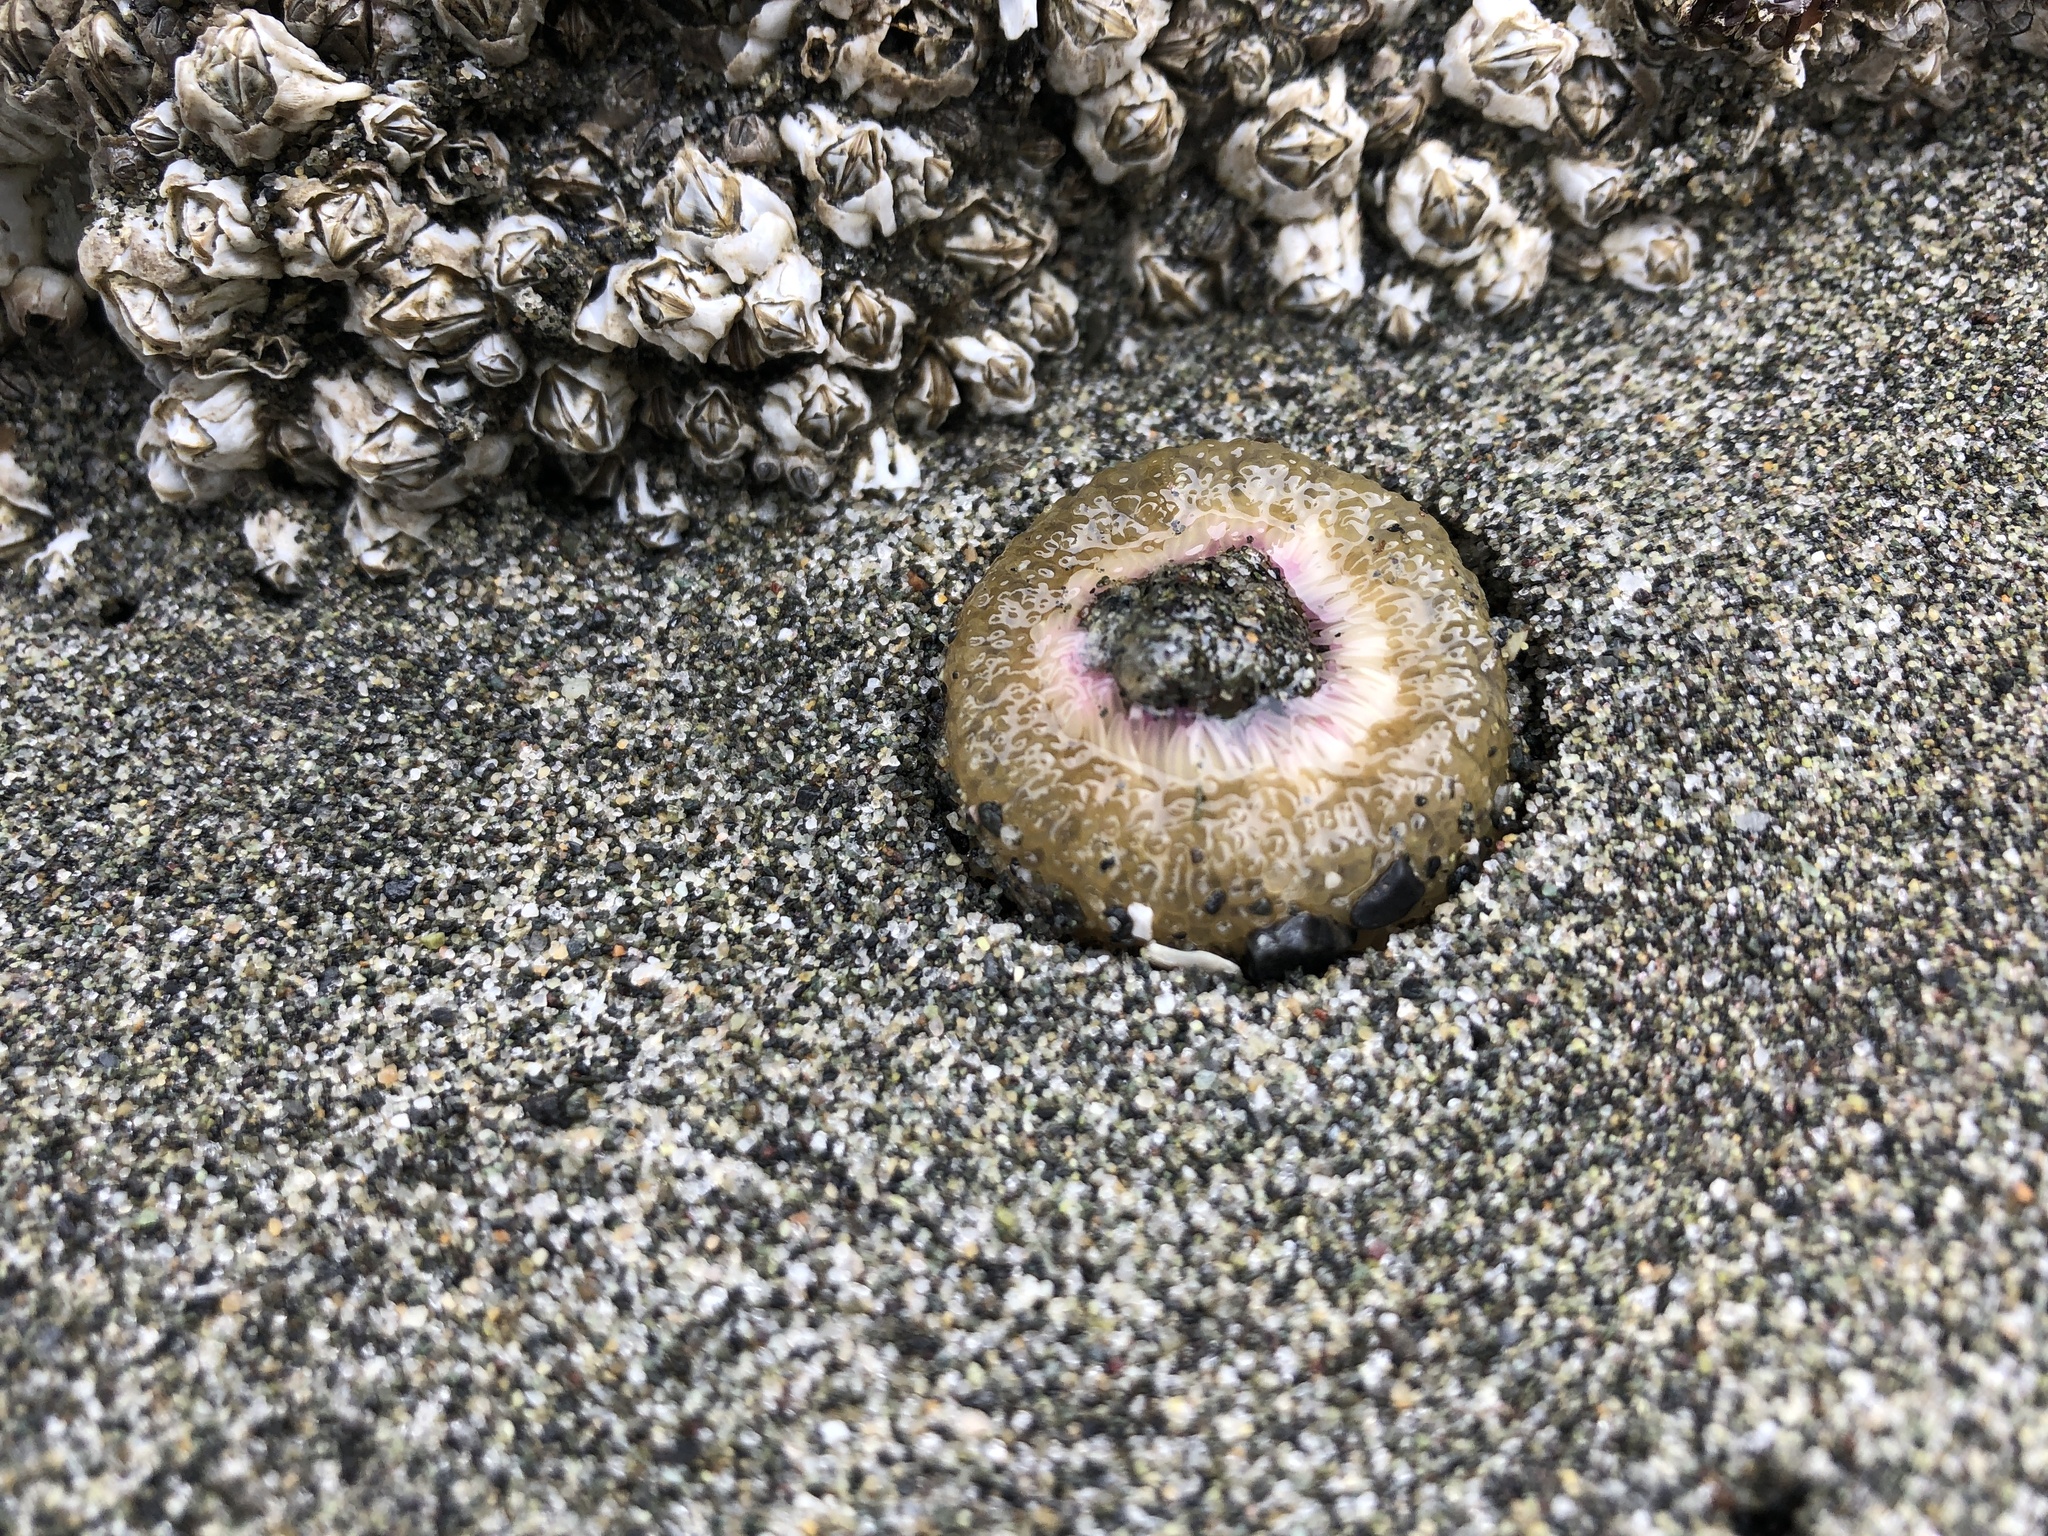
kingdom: Animalia
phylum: Cnidaria
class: Anthozoa
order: Actiniaria
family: Actiniidae
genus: Anthopleura
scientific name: Anthopleura elegantissima
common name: Clonal anemone
